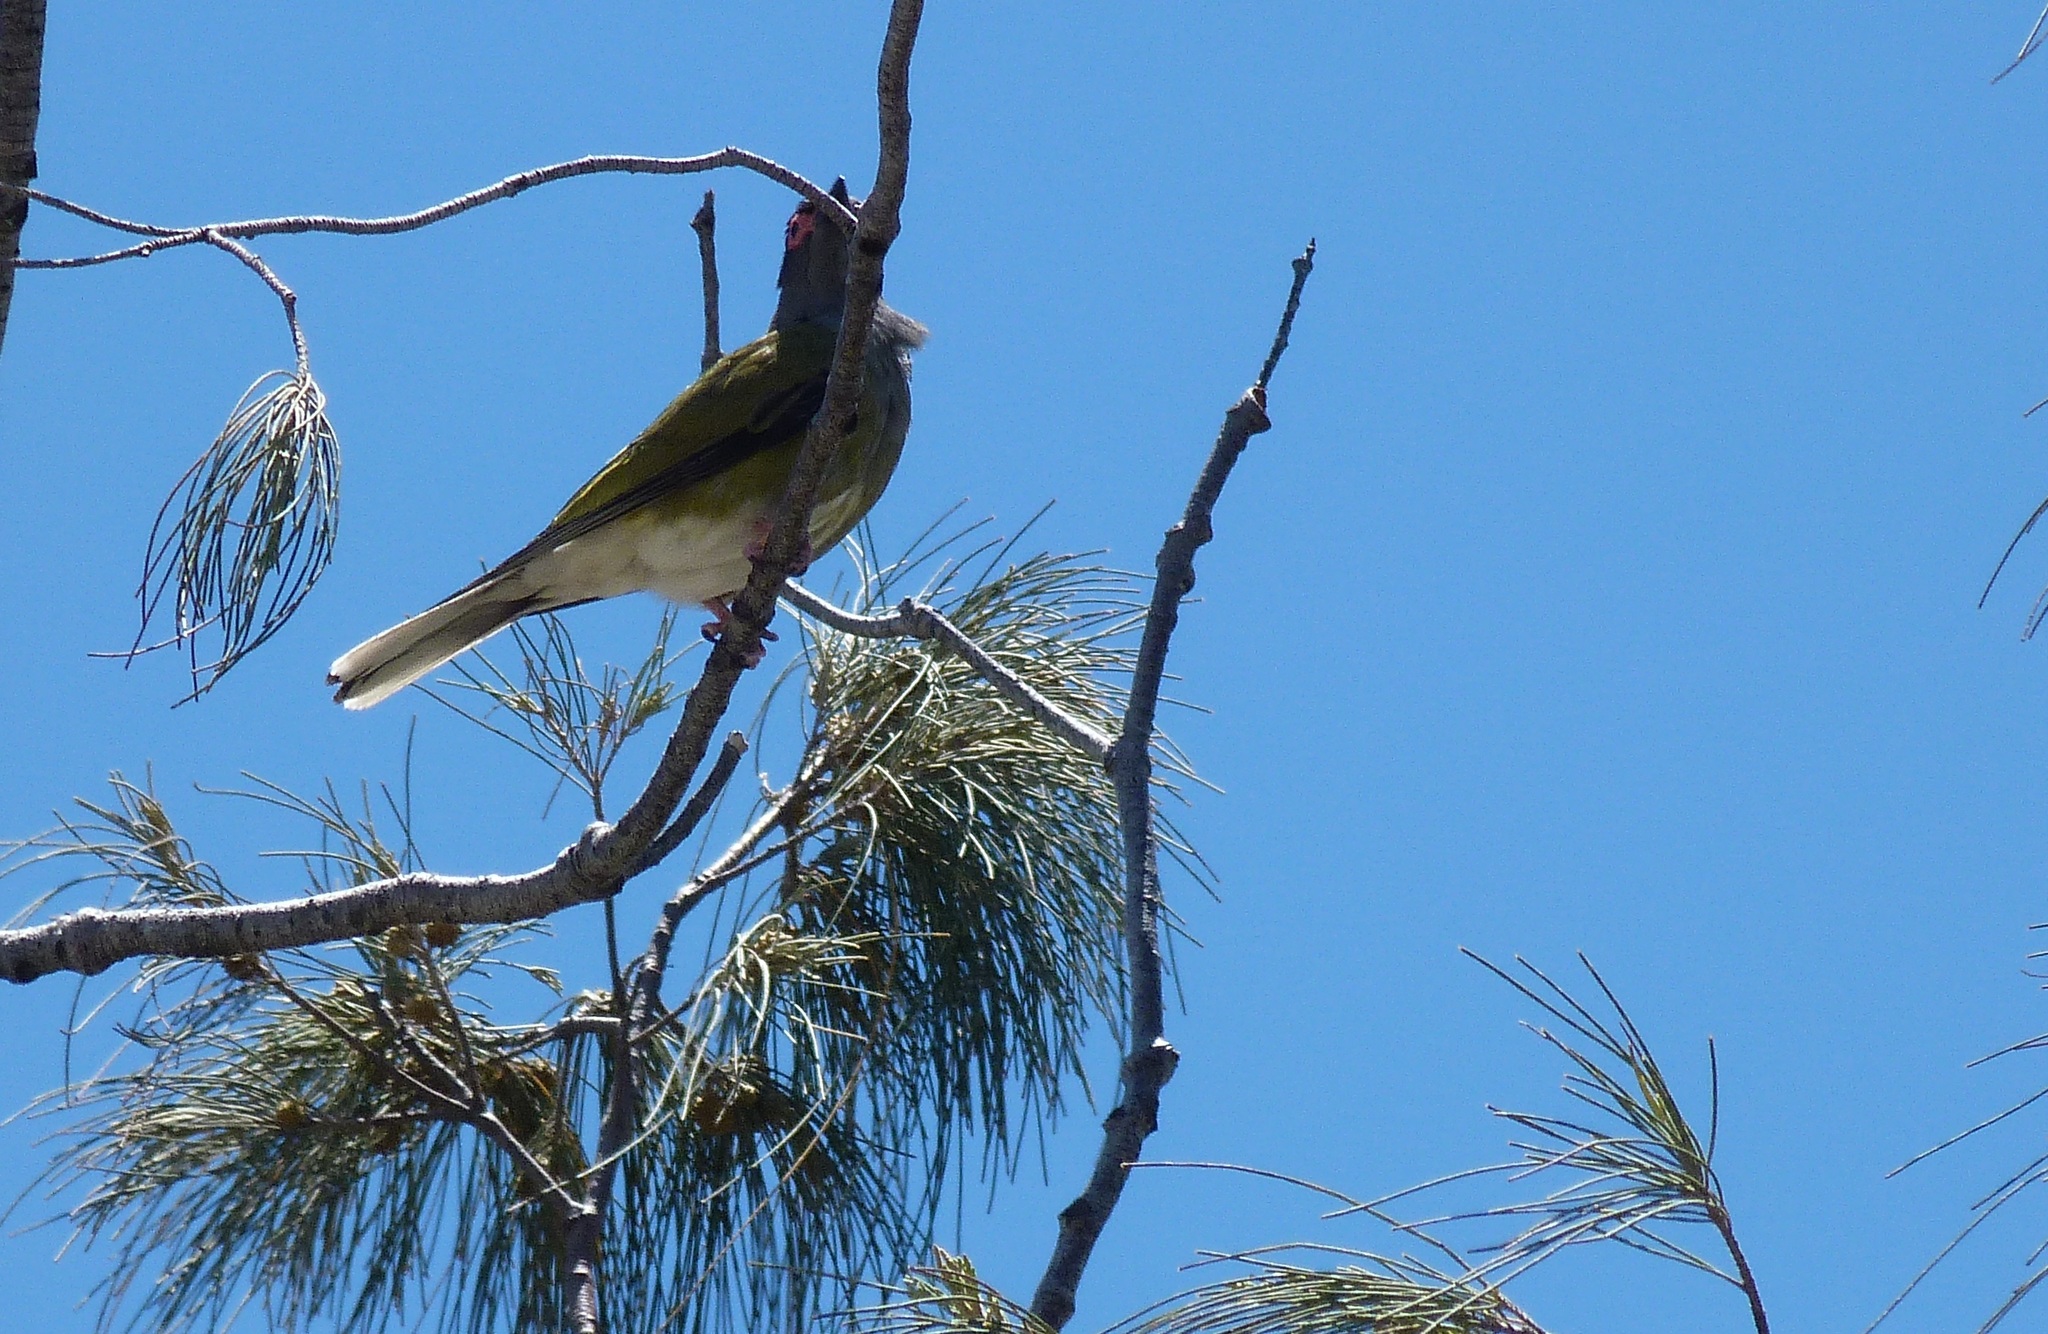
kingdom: Animalia
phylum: Chordata
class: Aves
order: Passeriformes
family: Oriolidae
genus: Sphecotheres
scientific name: Sphecotheres vieilloti
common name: Australasian figbird
